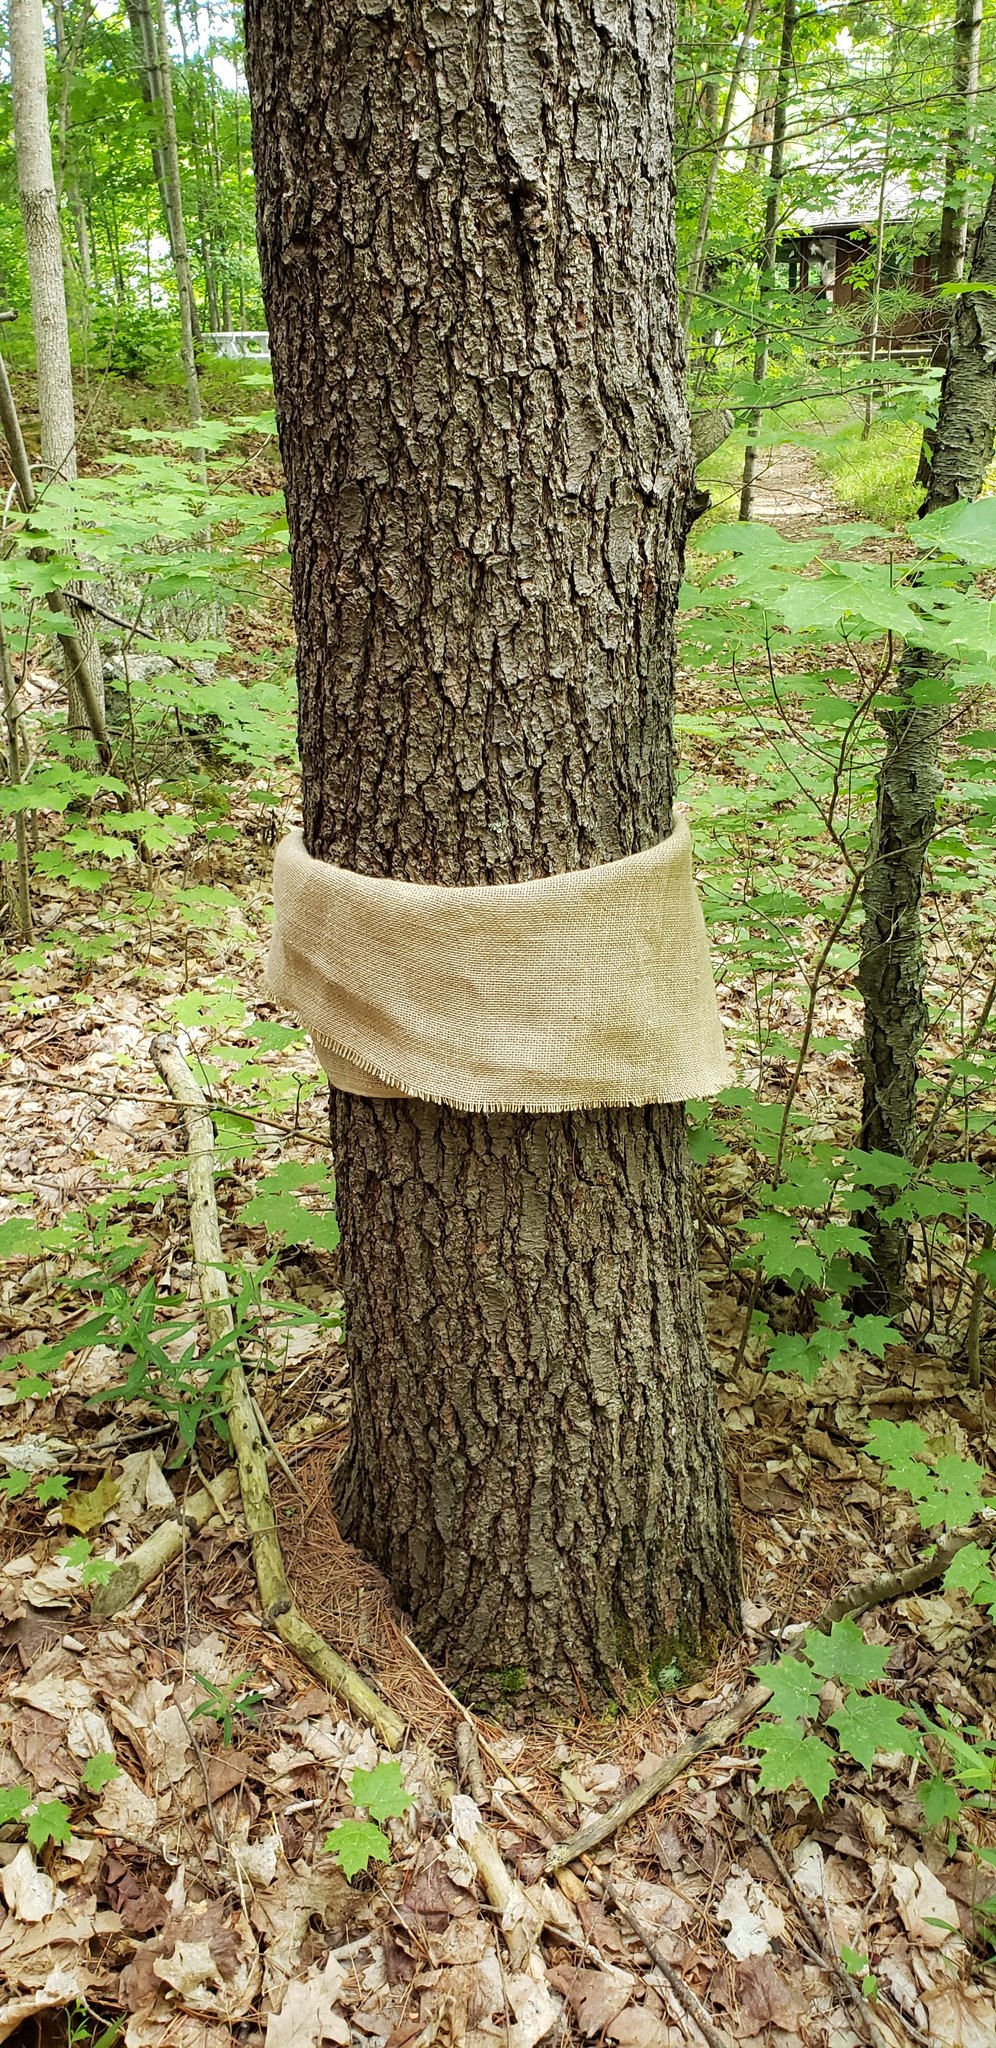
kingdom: Plantae
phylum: Tracheophyta
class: Pinopsida
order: Pinales
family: Pinaceae
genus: Pinus
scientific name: Pinus strobus
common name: Weymouth pine
